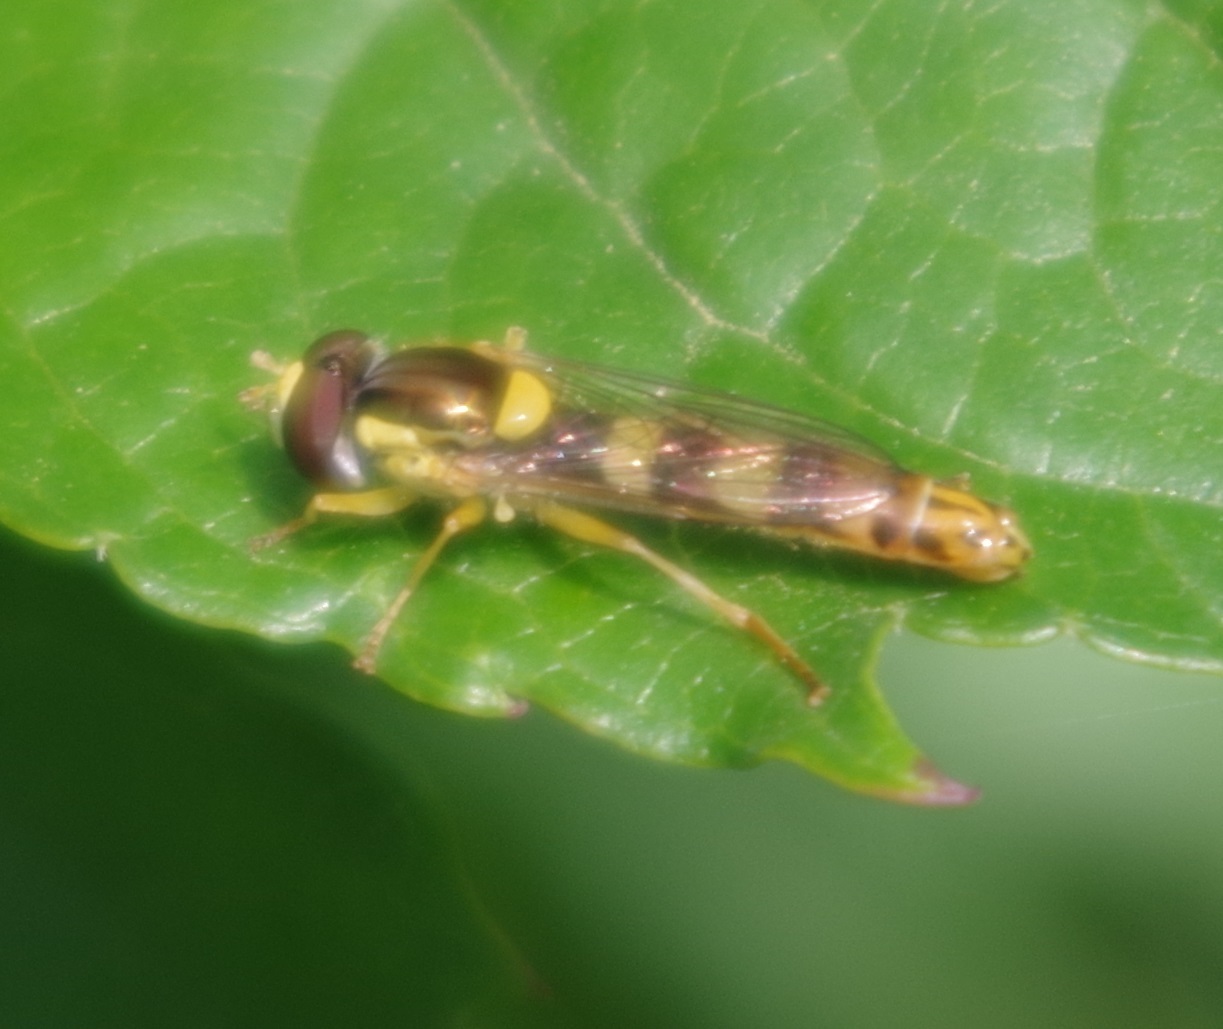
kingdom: Animalia
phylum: Arthropoda
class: Insecta
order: Diptera
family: Syrphidae
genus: Sphaerophoria
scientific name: Sphaerophoria scripta
